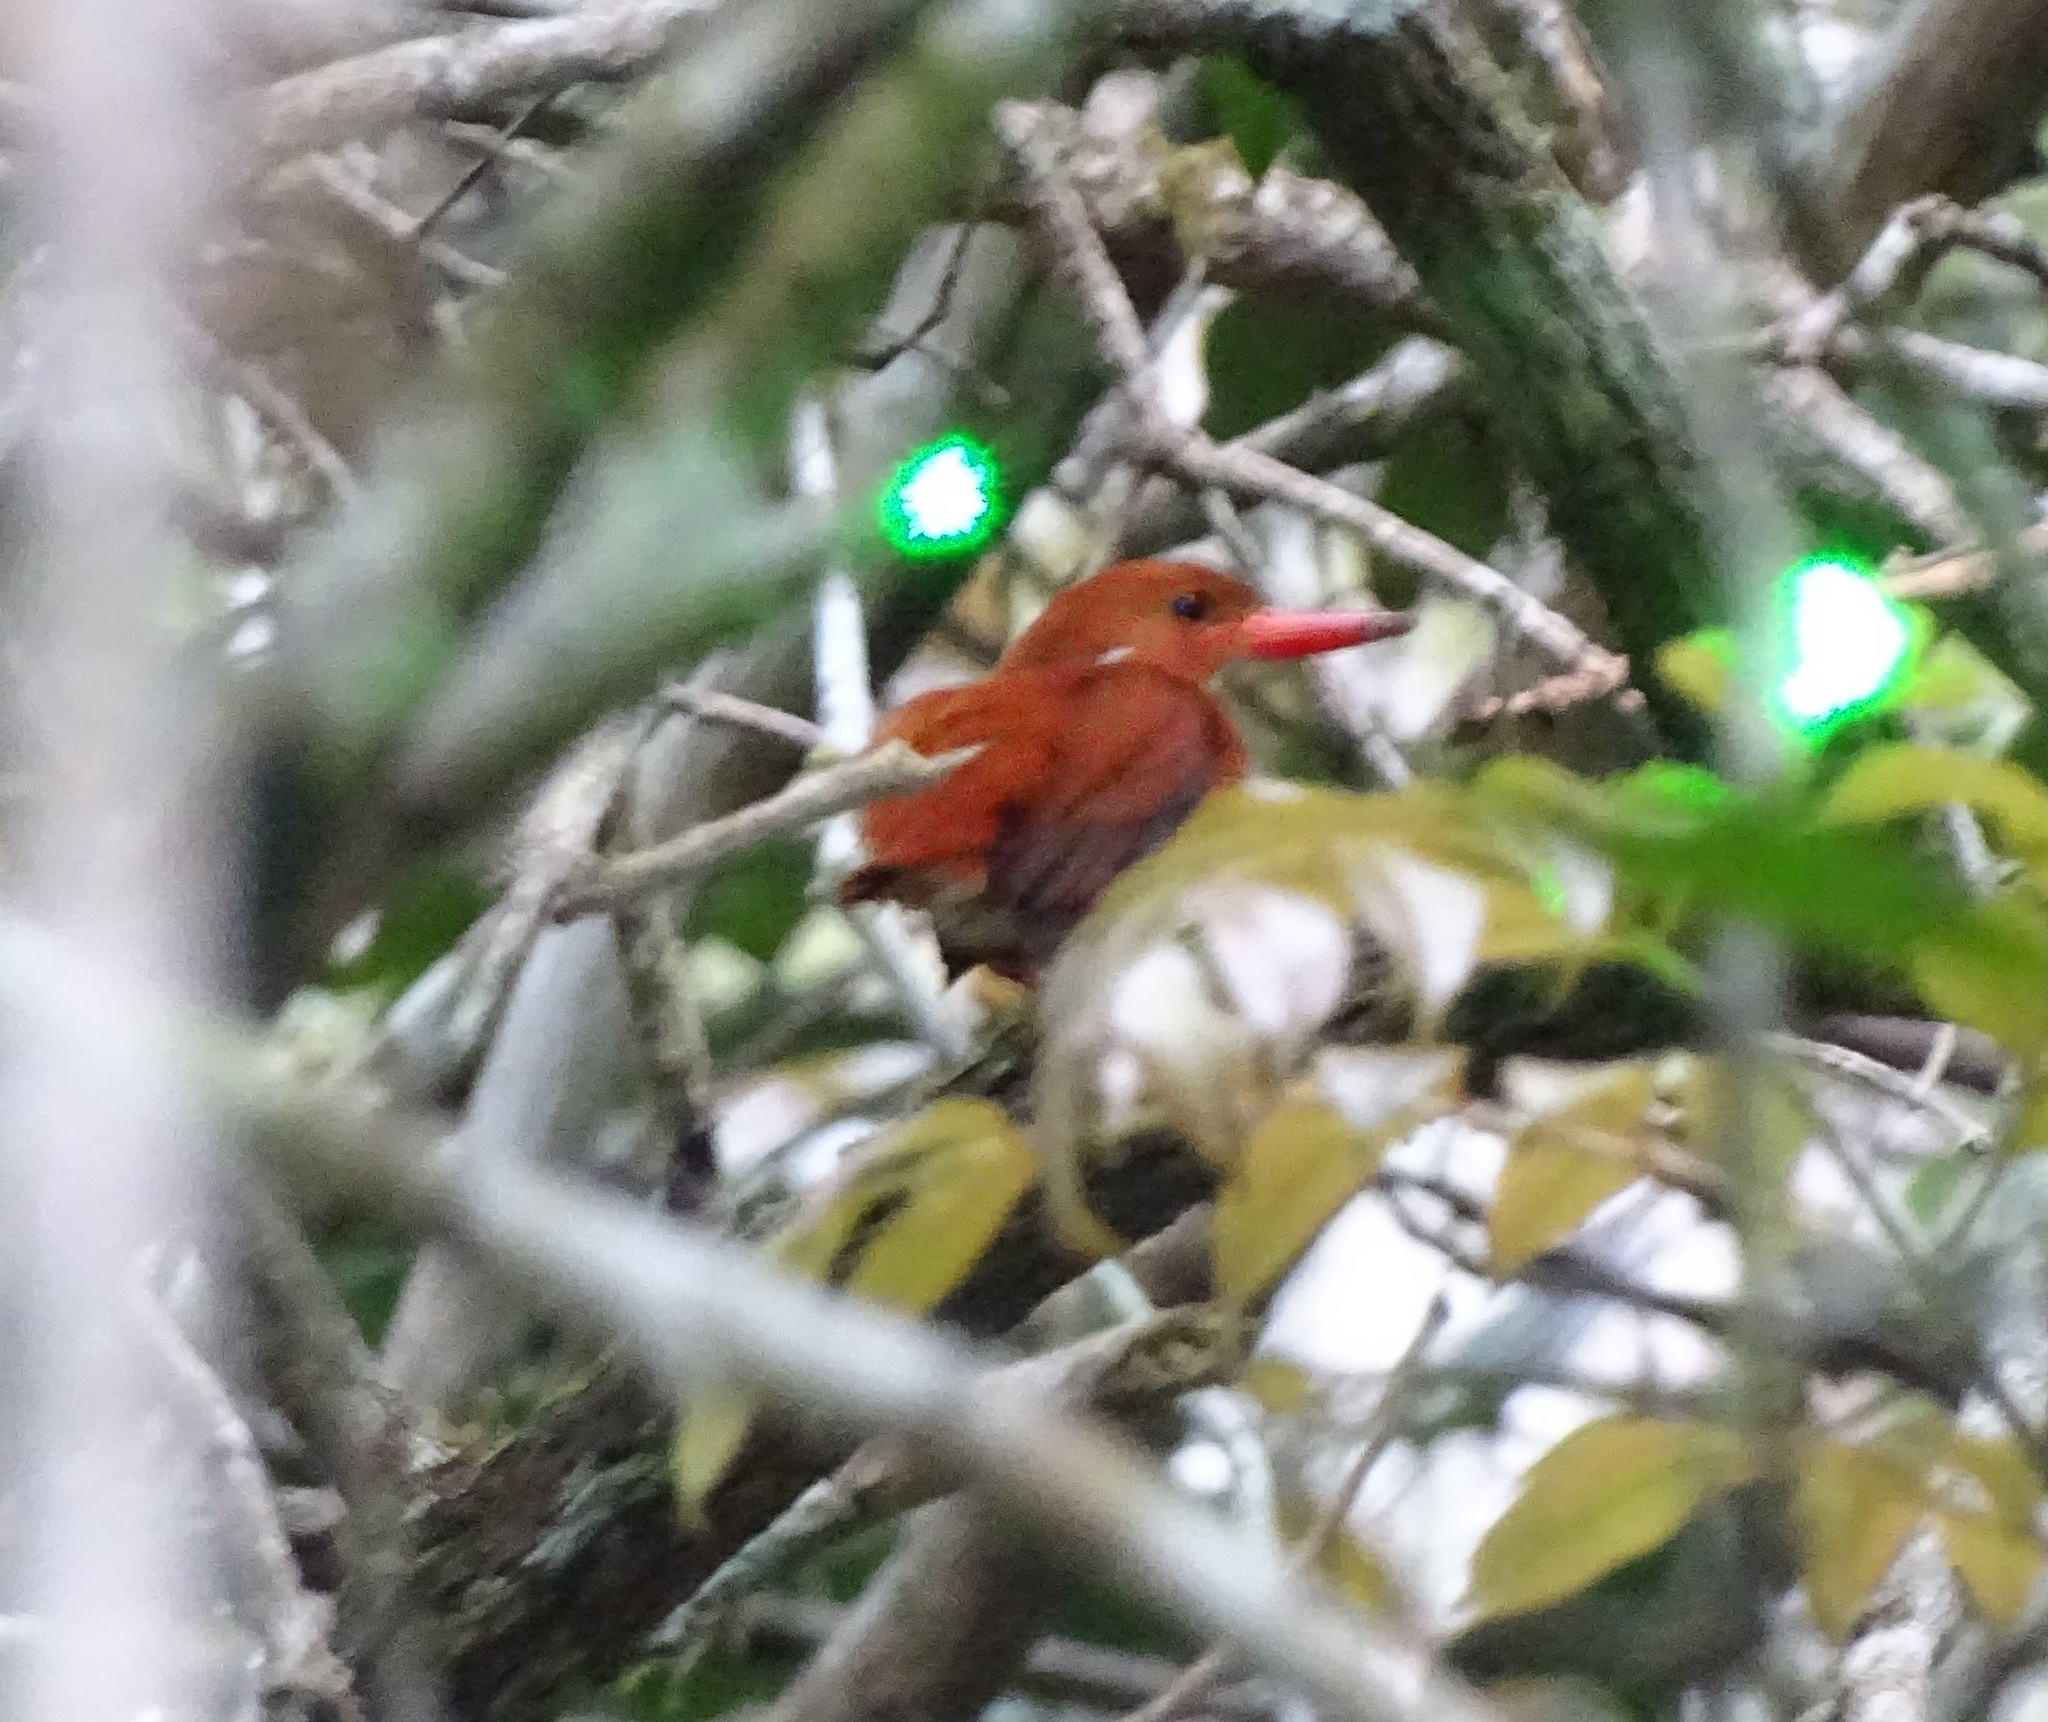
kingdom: Animalia
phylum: Chordata
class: Aves
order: Coraciiformes
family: Alcedinidae
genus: Corythornis
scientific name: Corythornis madagascariensis
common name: Madagascar pygmy-kingfisher
